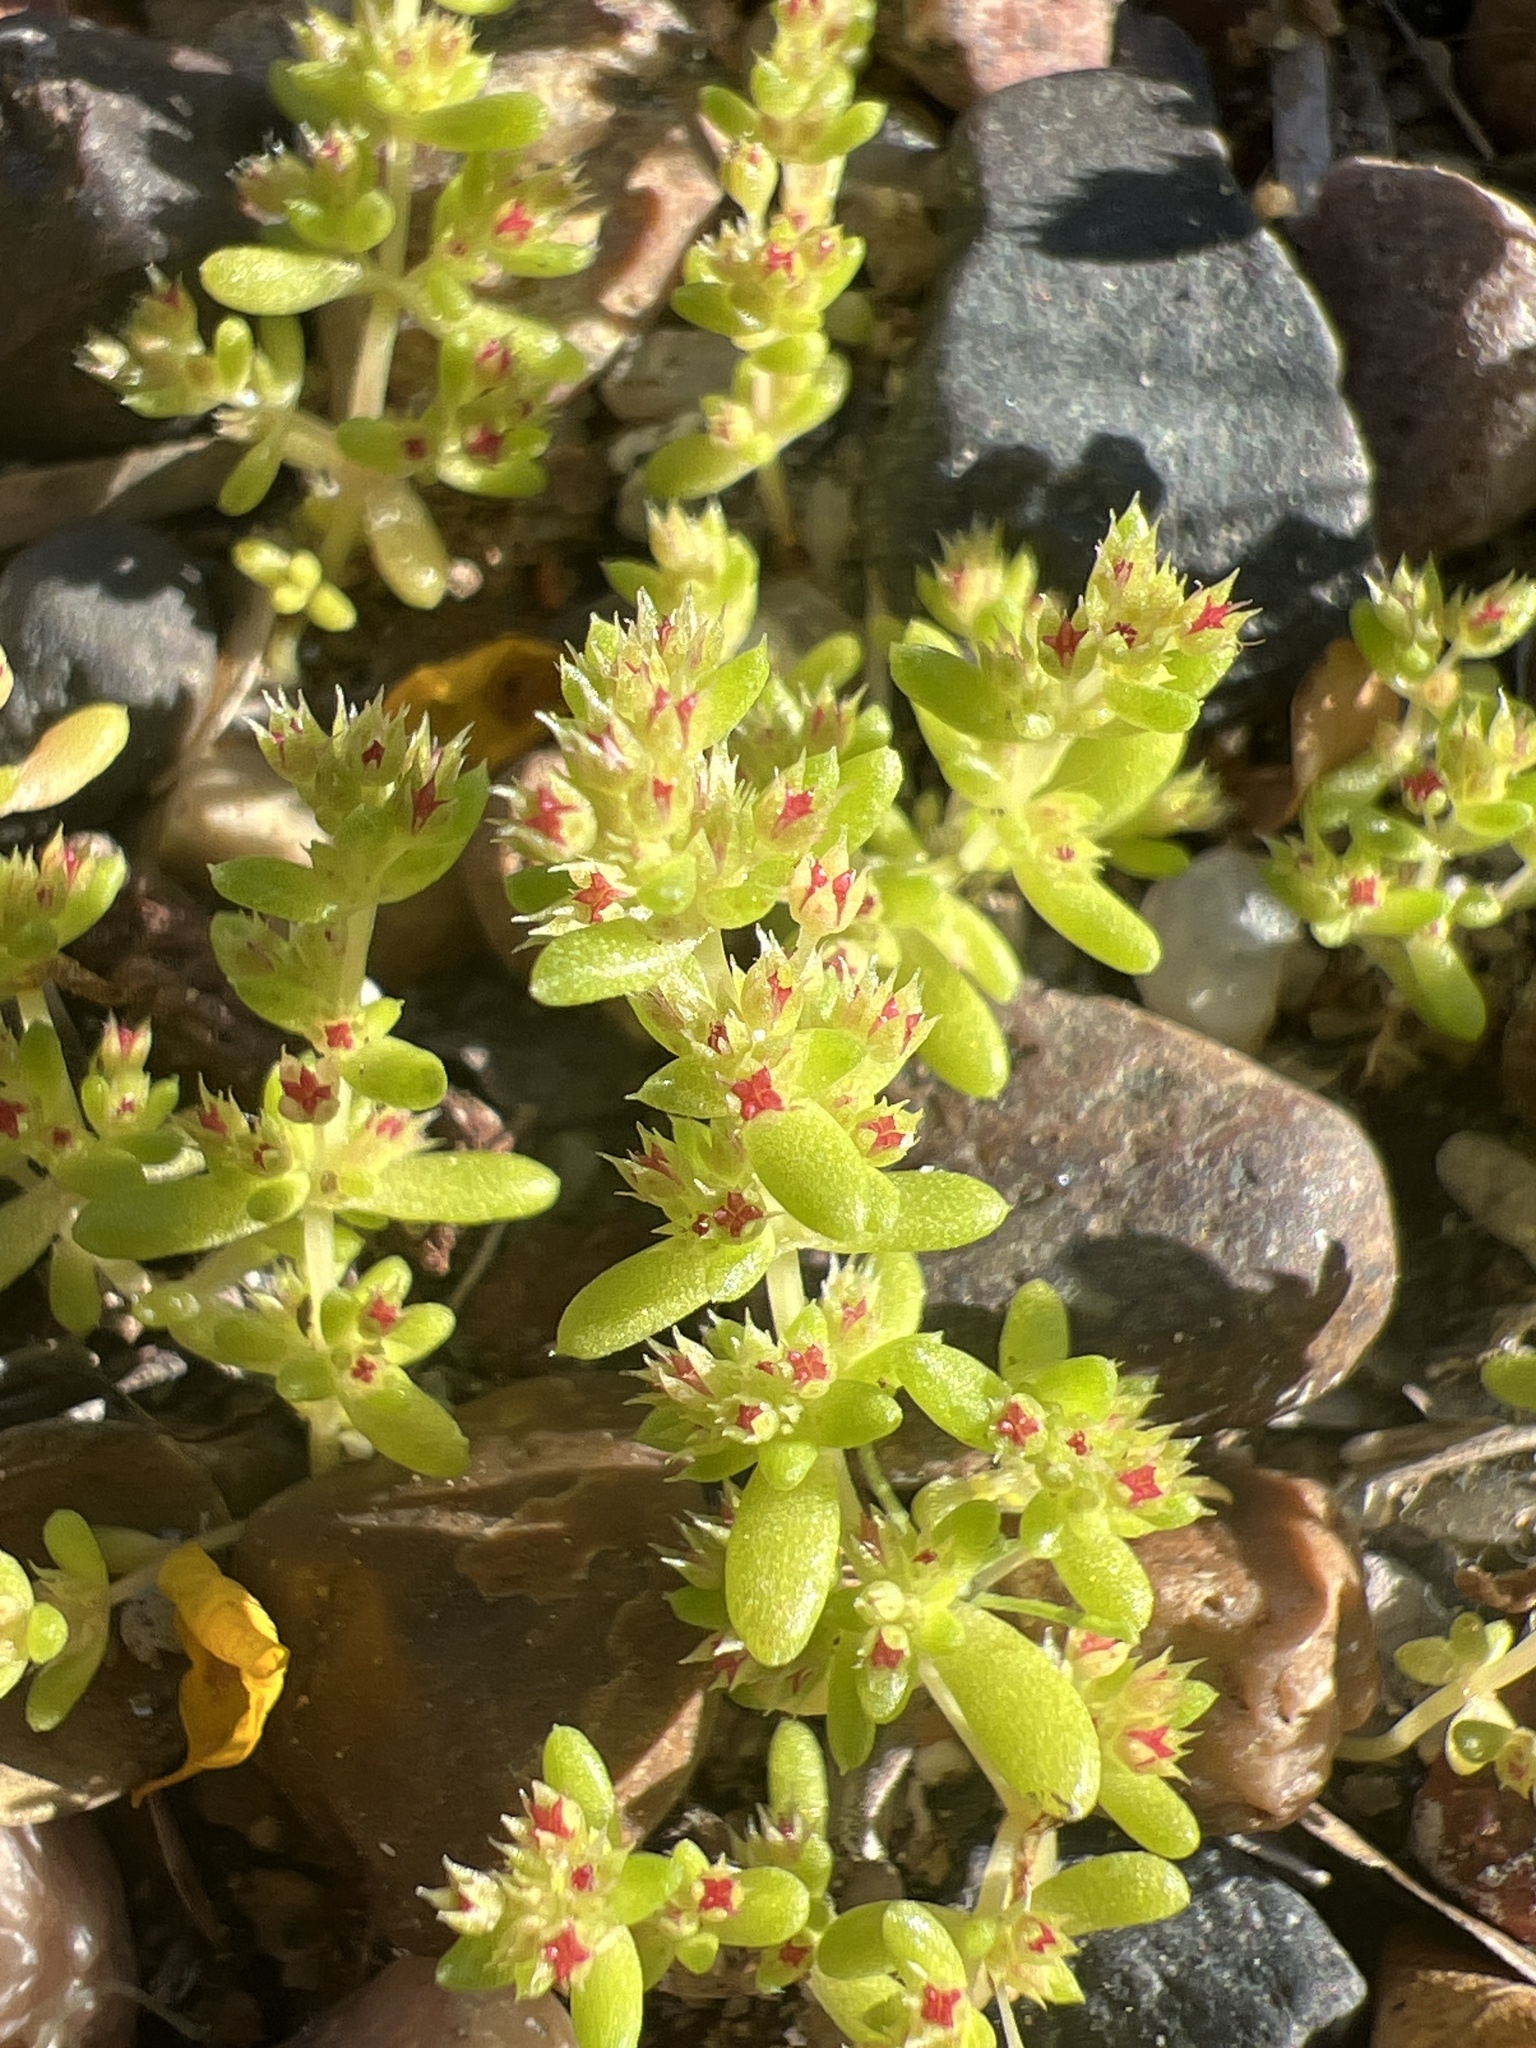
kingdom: Plantae
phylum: Tracheophyta
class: Magnoliopsida
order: Saxifragales
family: Crassulaceae
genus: Crassula
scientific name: Crassula connata
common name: Erect pygmyweed
